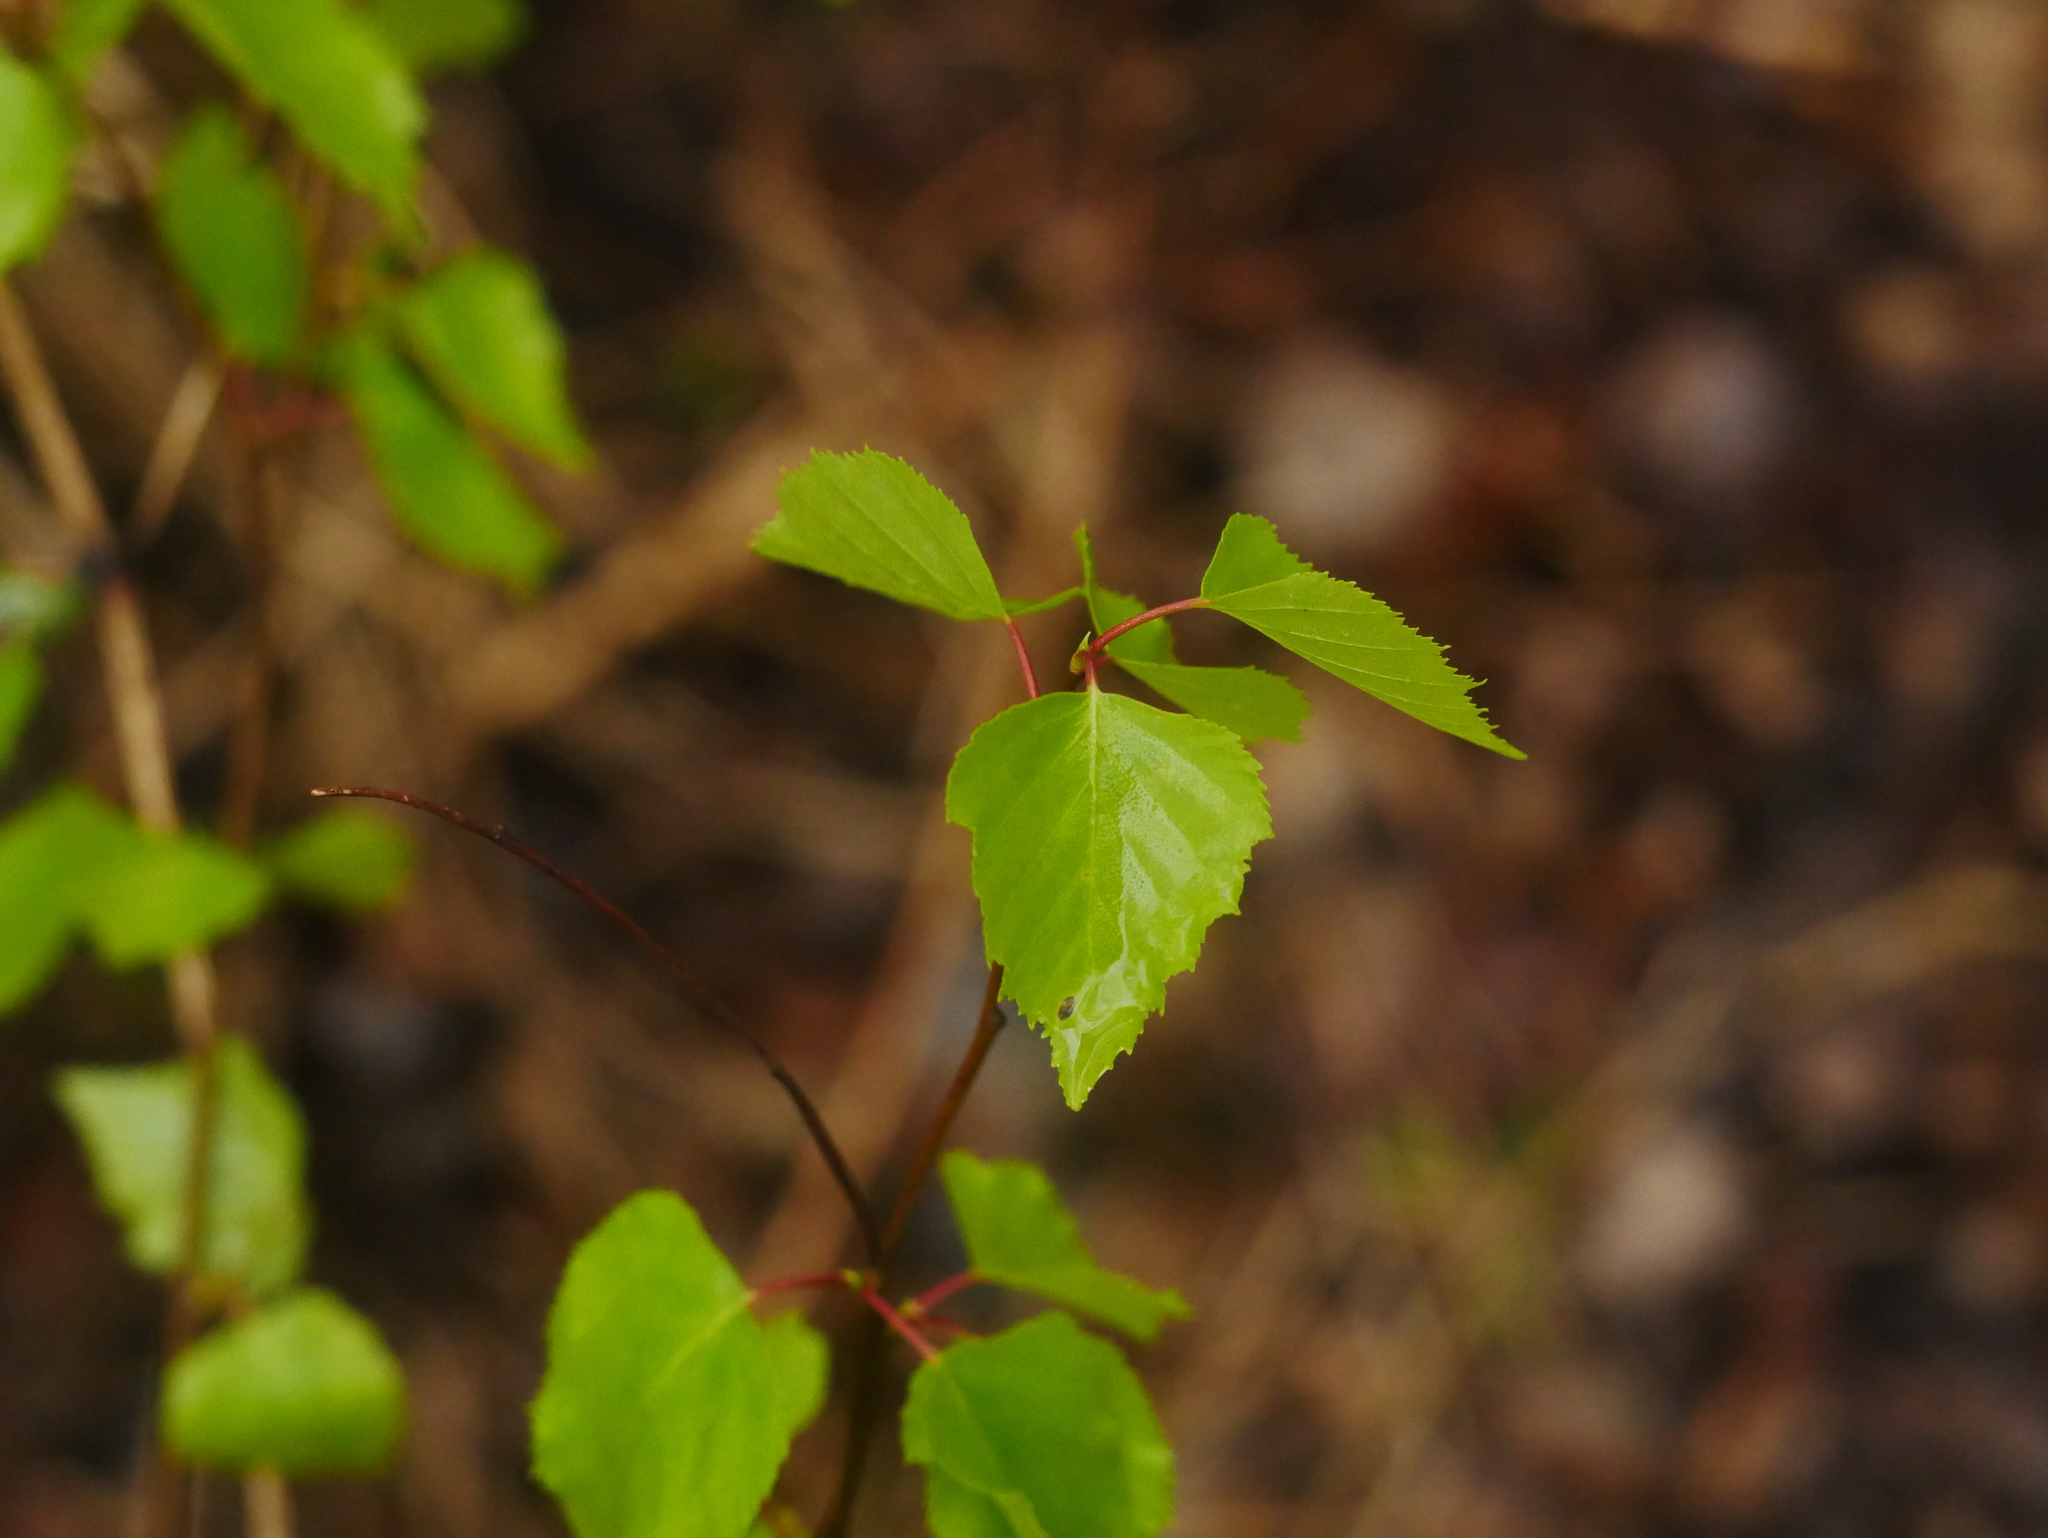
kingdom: Plantae
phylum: Tracheophyta
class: Magnoliopsida
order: Fagales
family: Betulaceae
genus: Betula
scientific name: Betula pendula
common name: Silver birch
